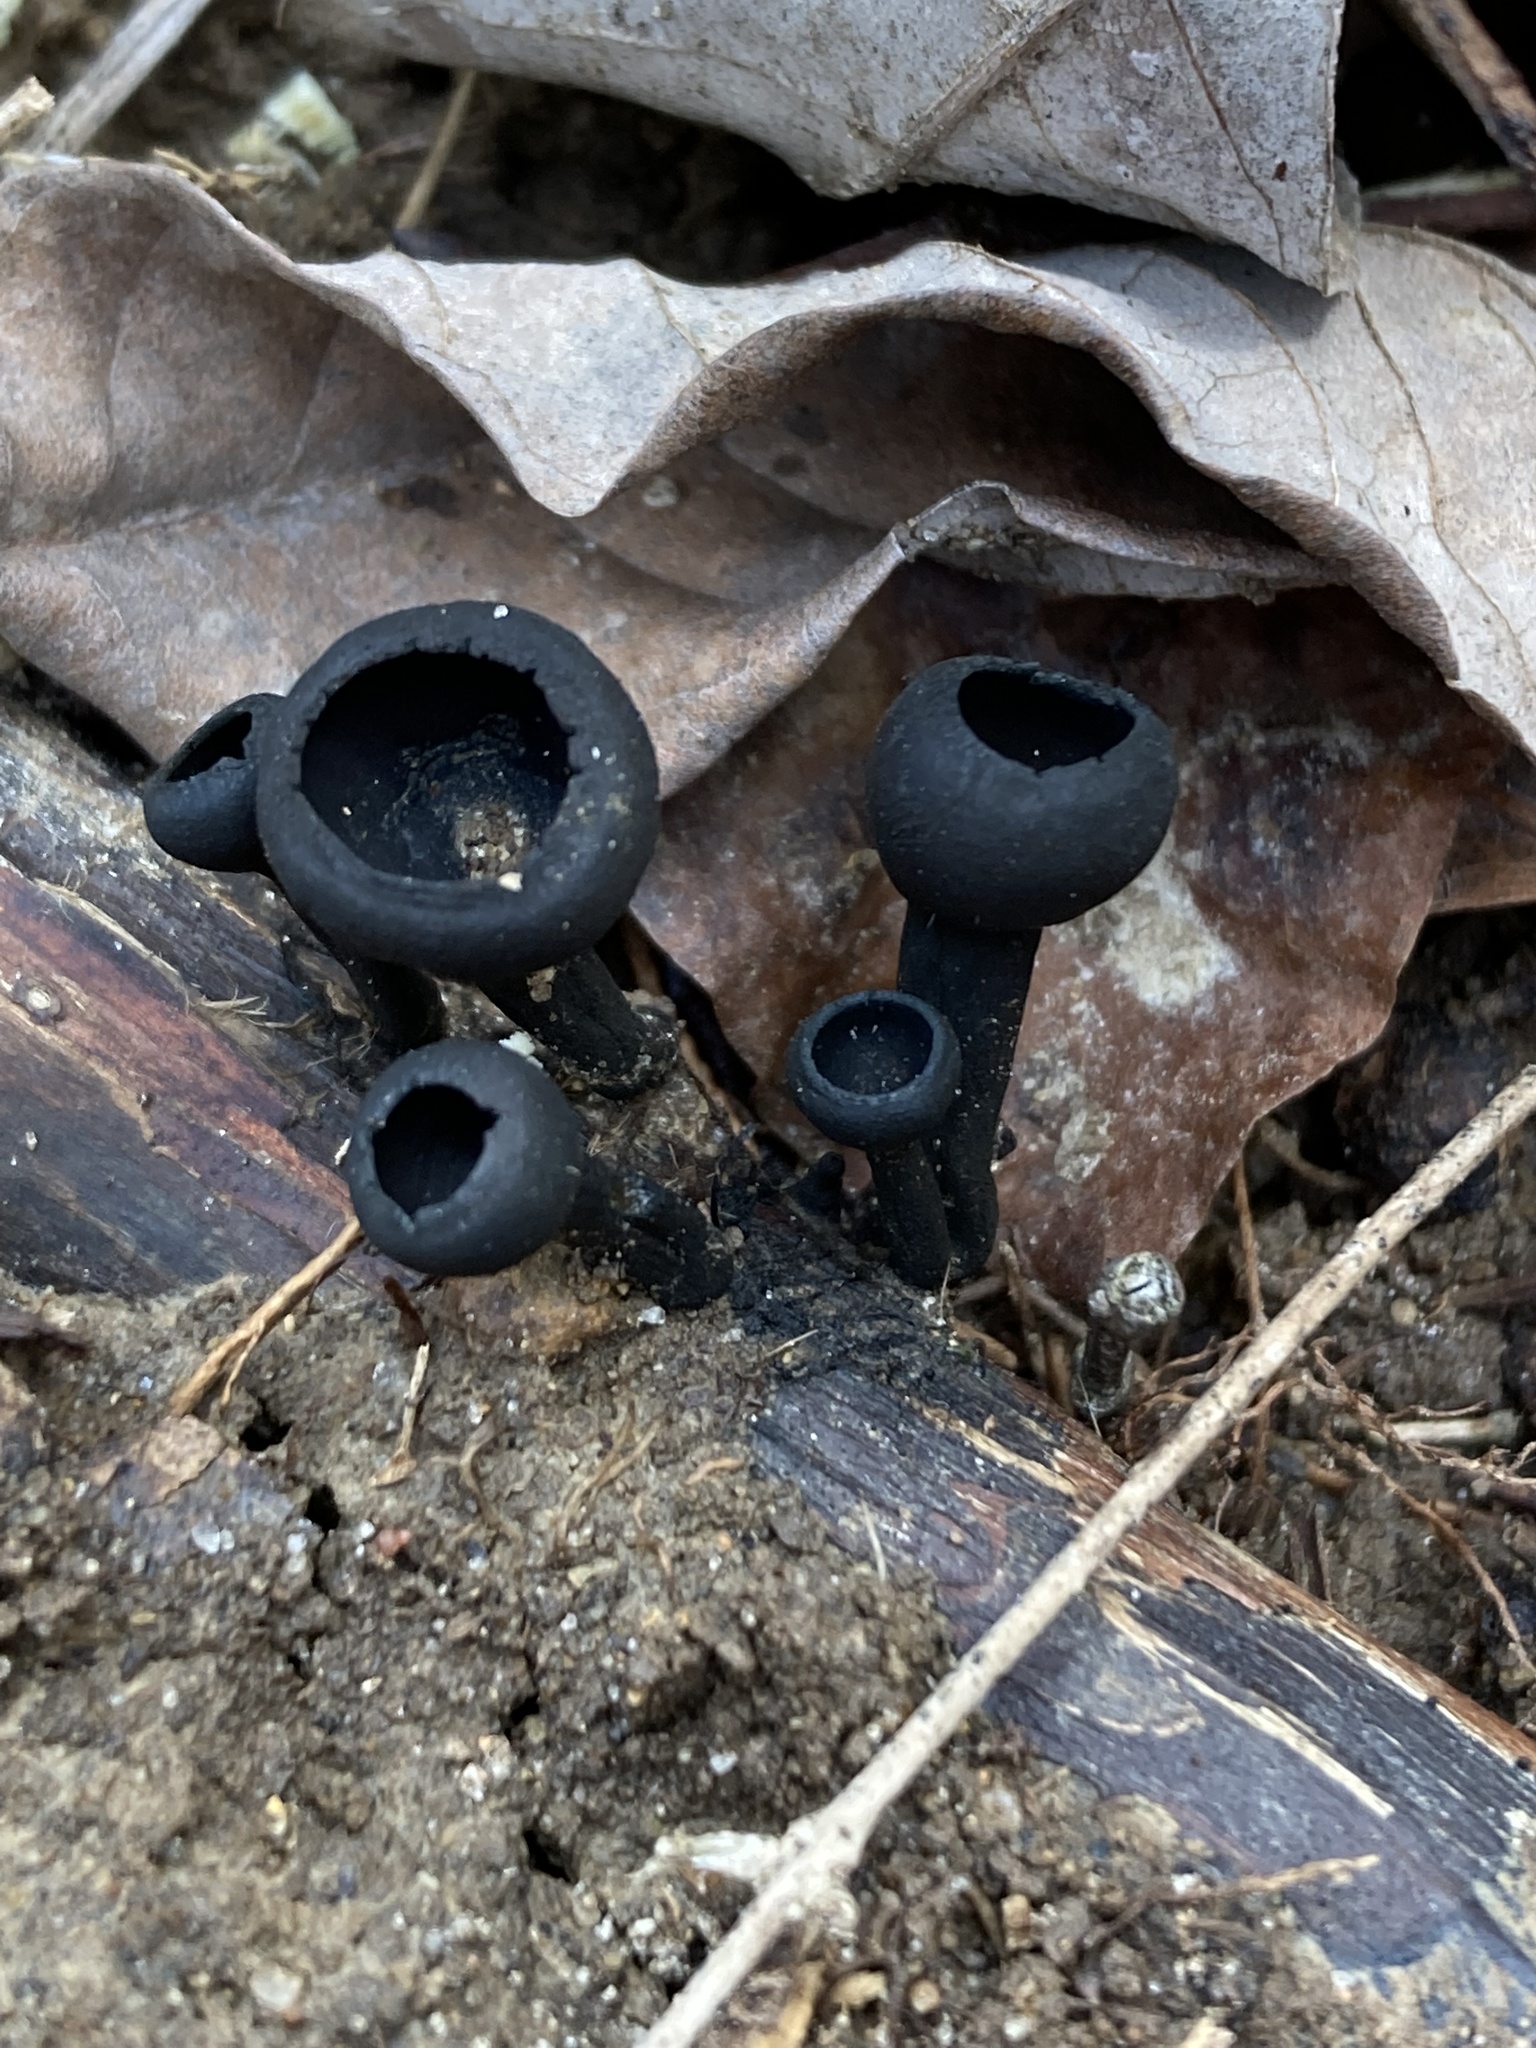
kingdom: Fungi
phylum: Ascomycota
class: Pezizomycetes
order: Pezizales
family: Sarcosomataceae
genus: Urnula
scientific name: Urnula craterium
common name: Devil's urn
